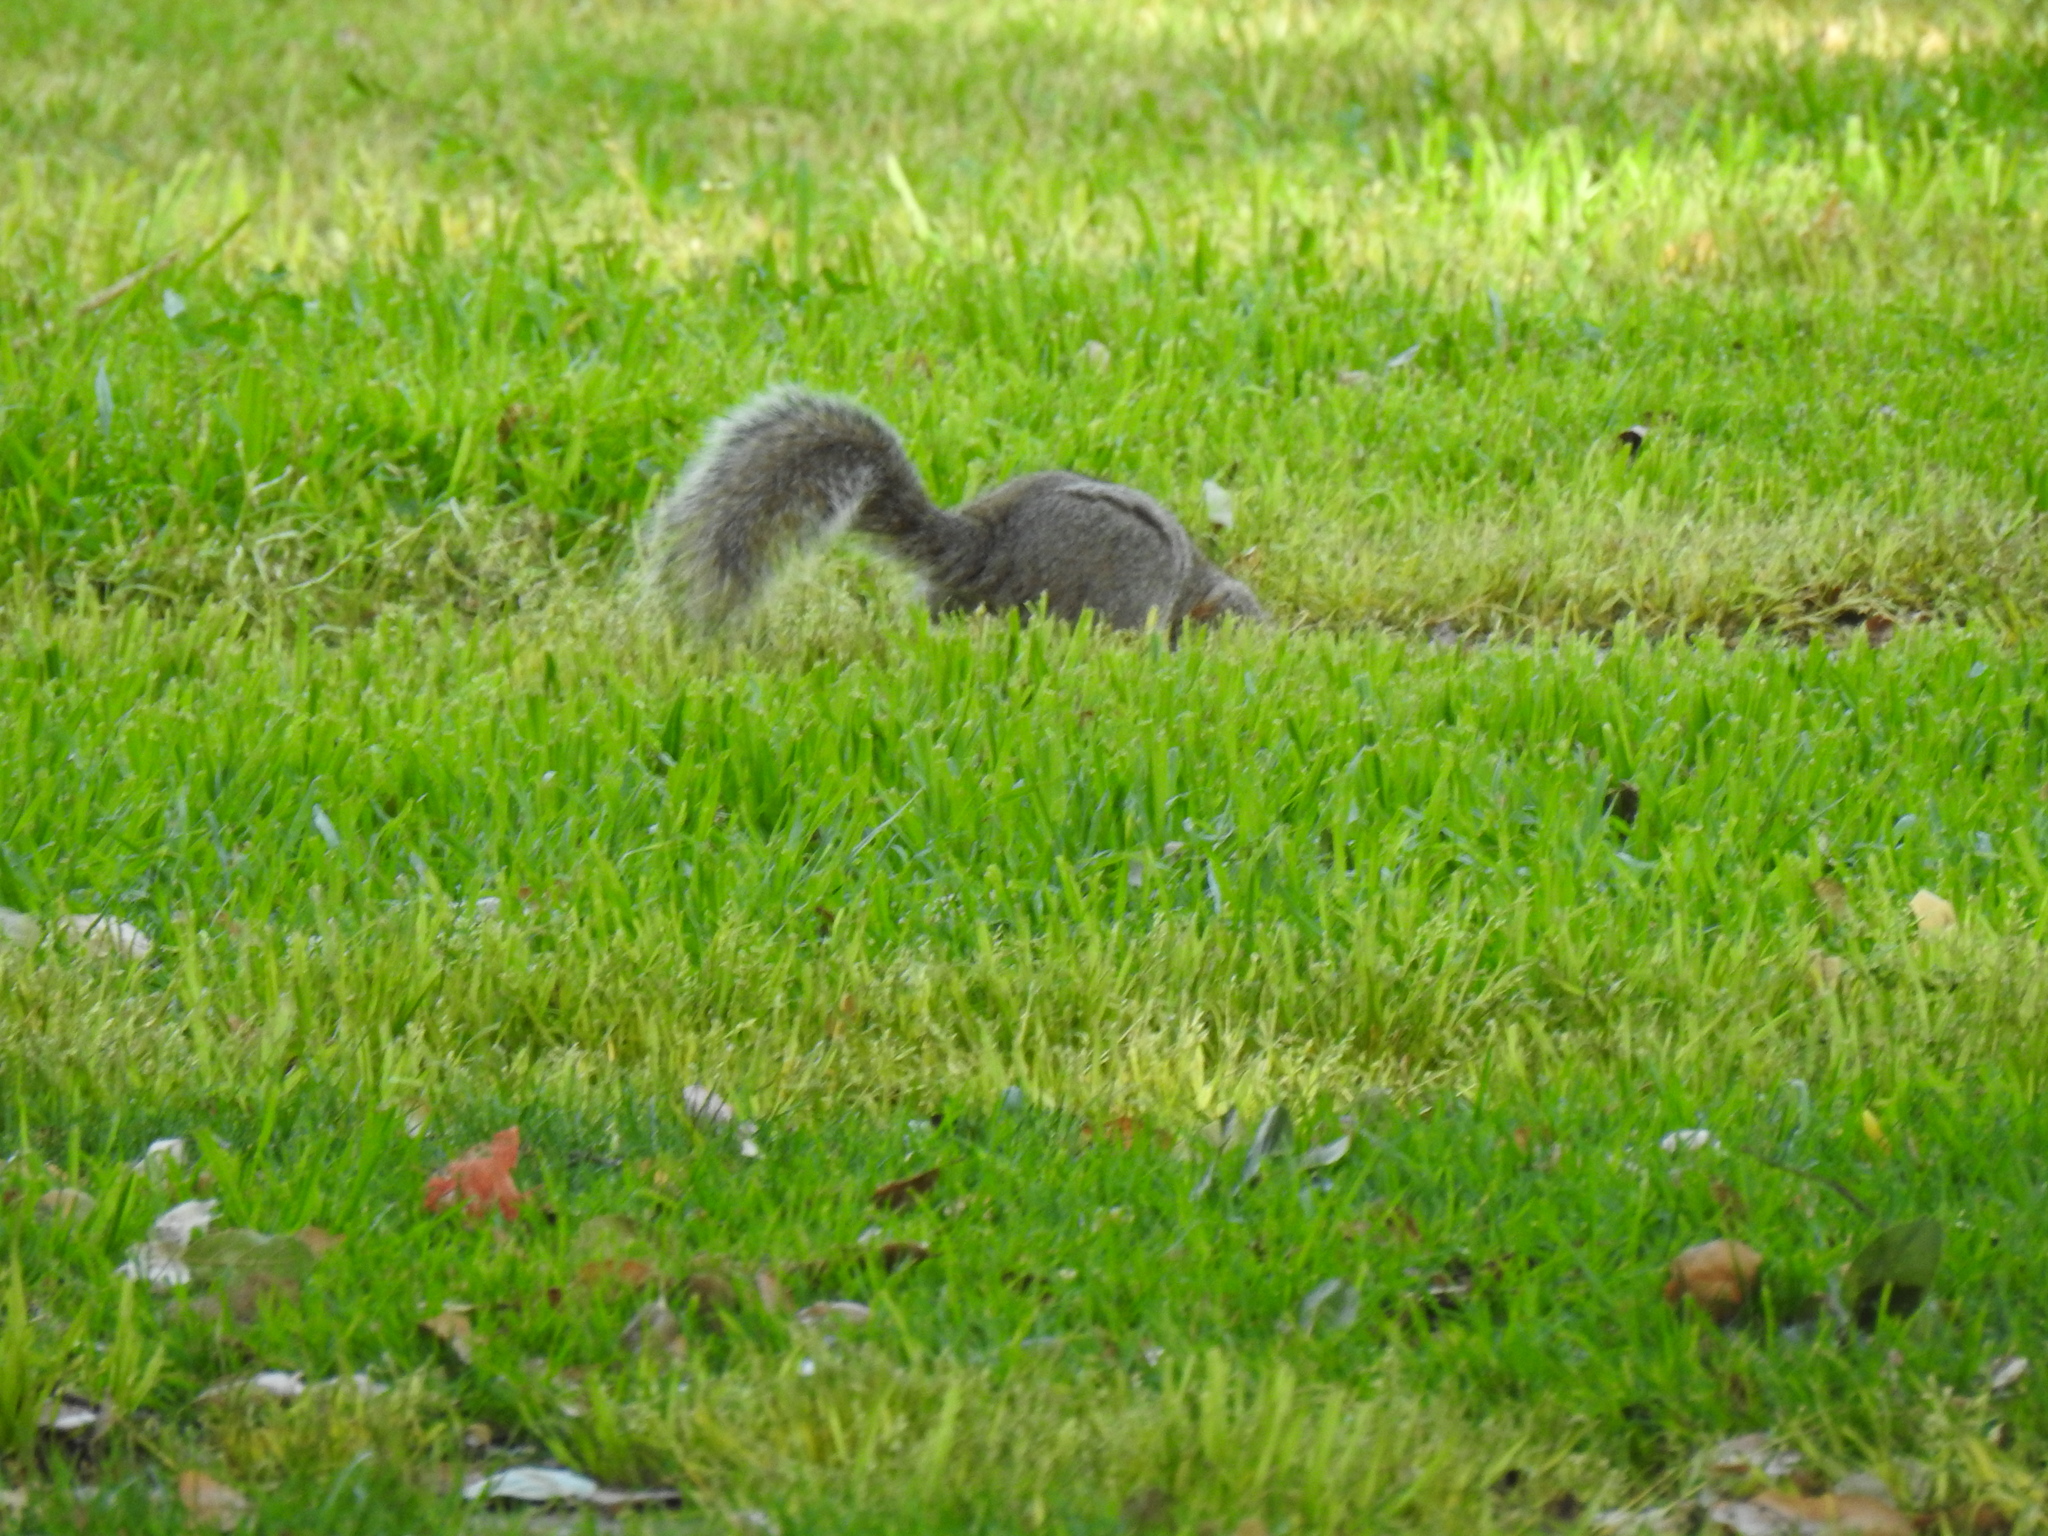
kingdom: Animalia
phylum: Chordata
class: Mammalia
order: Rodentia
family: Sciuridae
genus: Sciurus
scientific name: Sciurus carolinensis
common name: Eastern gray squirrel
